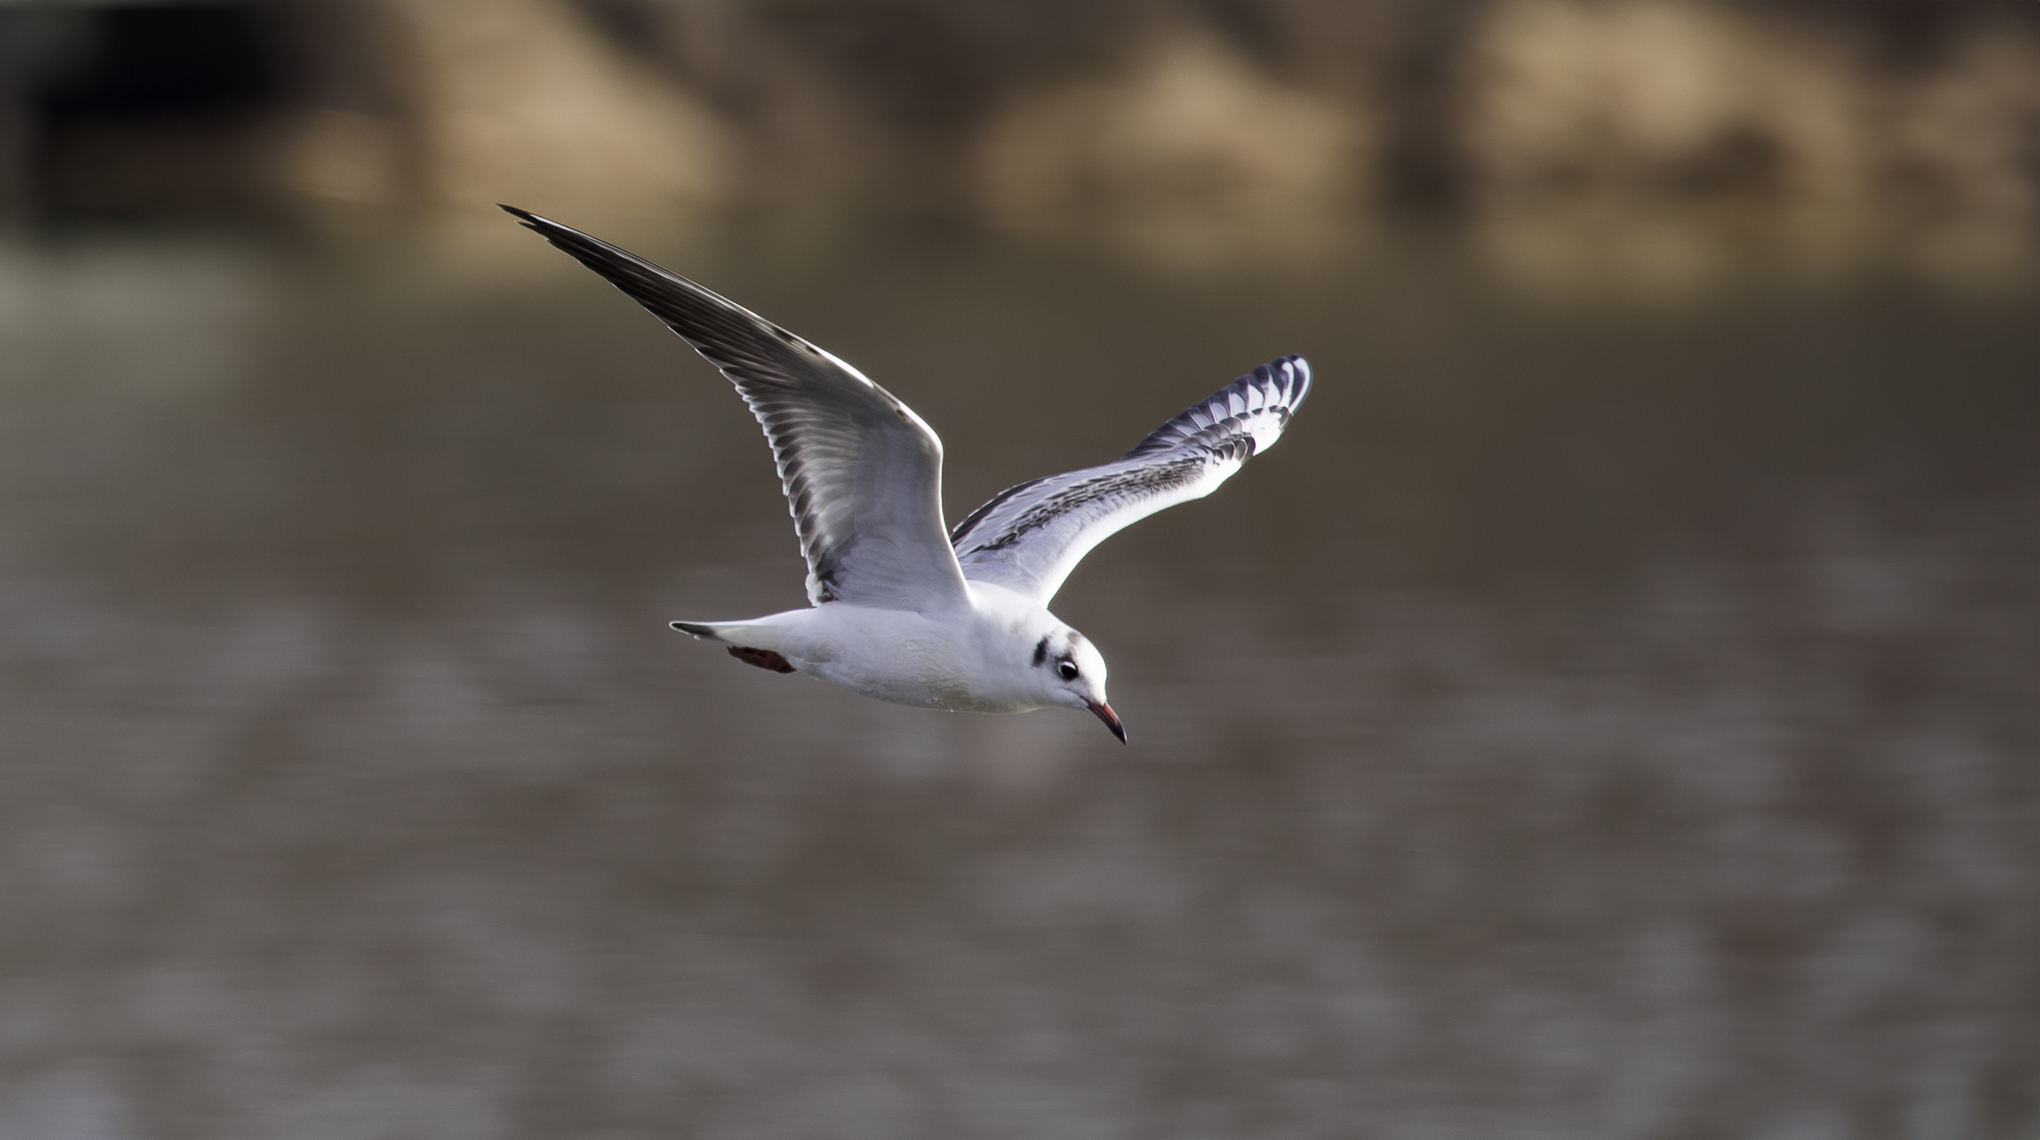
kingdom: Animalia
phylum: Chordata
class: Aves
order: Charadriiformes
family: Laridae
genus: Chroicocephalus
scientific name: Chroicocephalus ridibundus
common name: Black-headed gull
